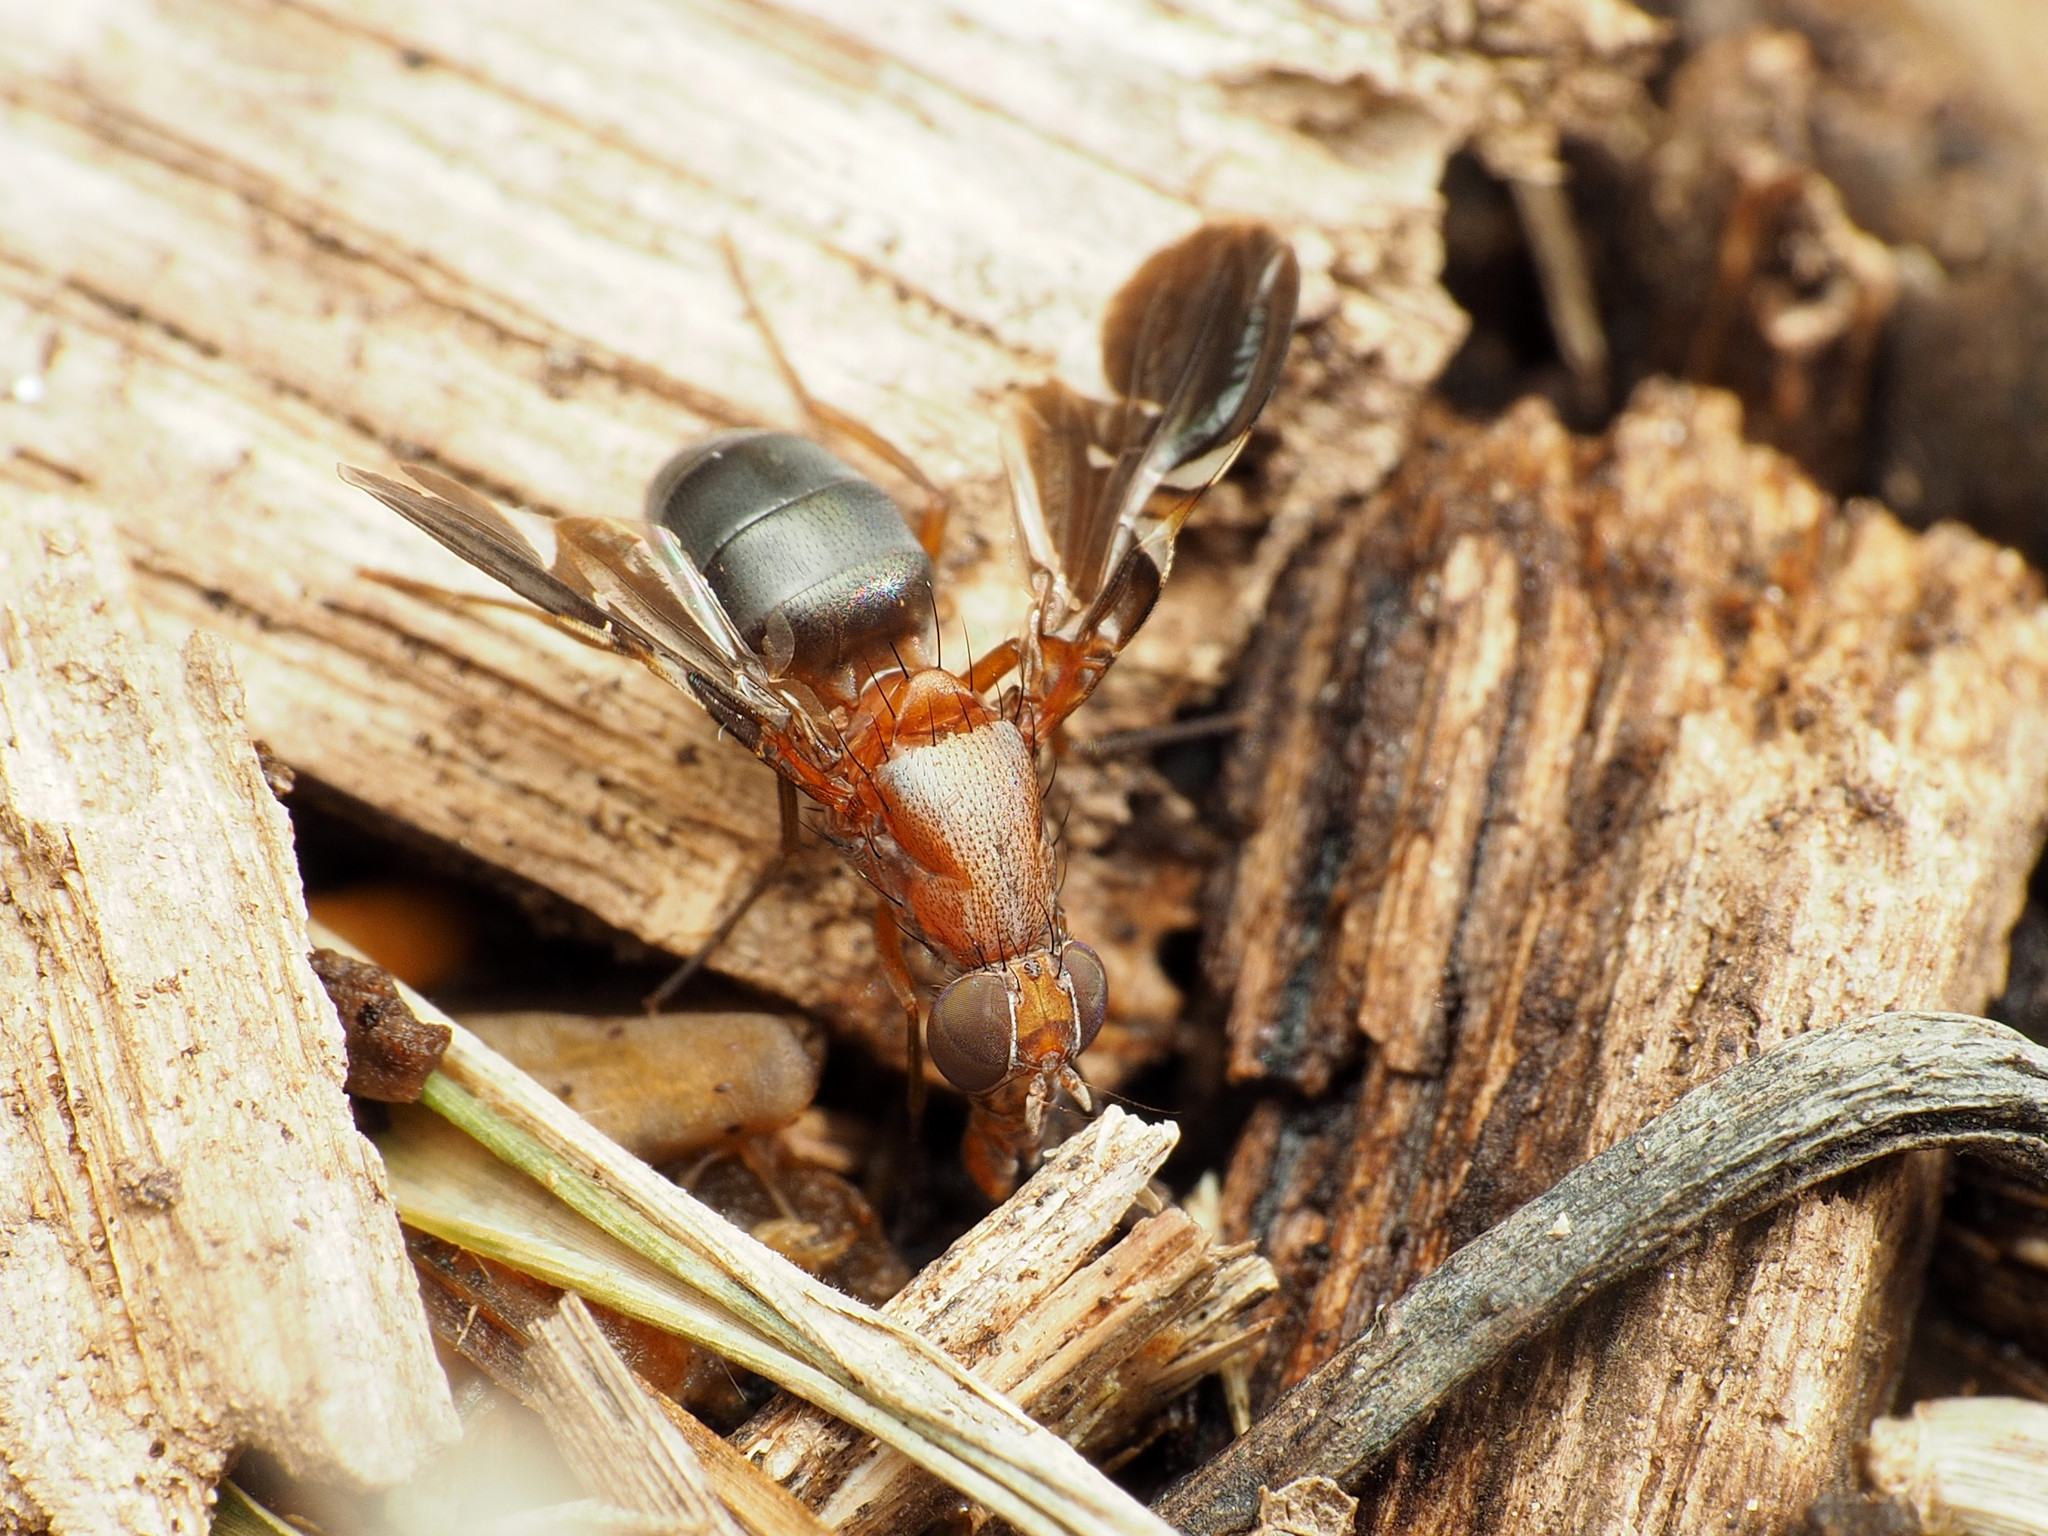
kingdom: Animalia
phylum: Arthropoda
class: Insecta
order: Diptera
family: Ulidiidae
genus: Delphinia
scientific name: Delphinia picta
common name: Common picture-winged fly
